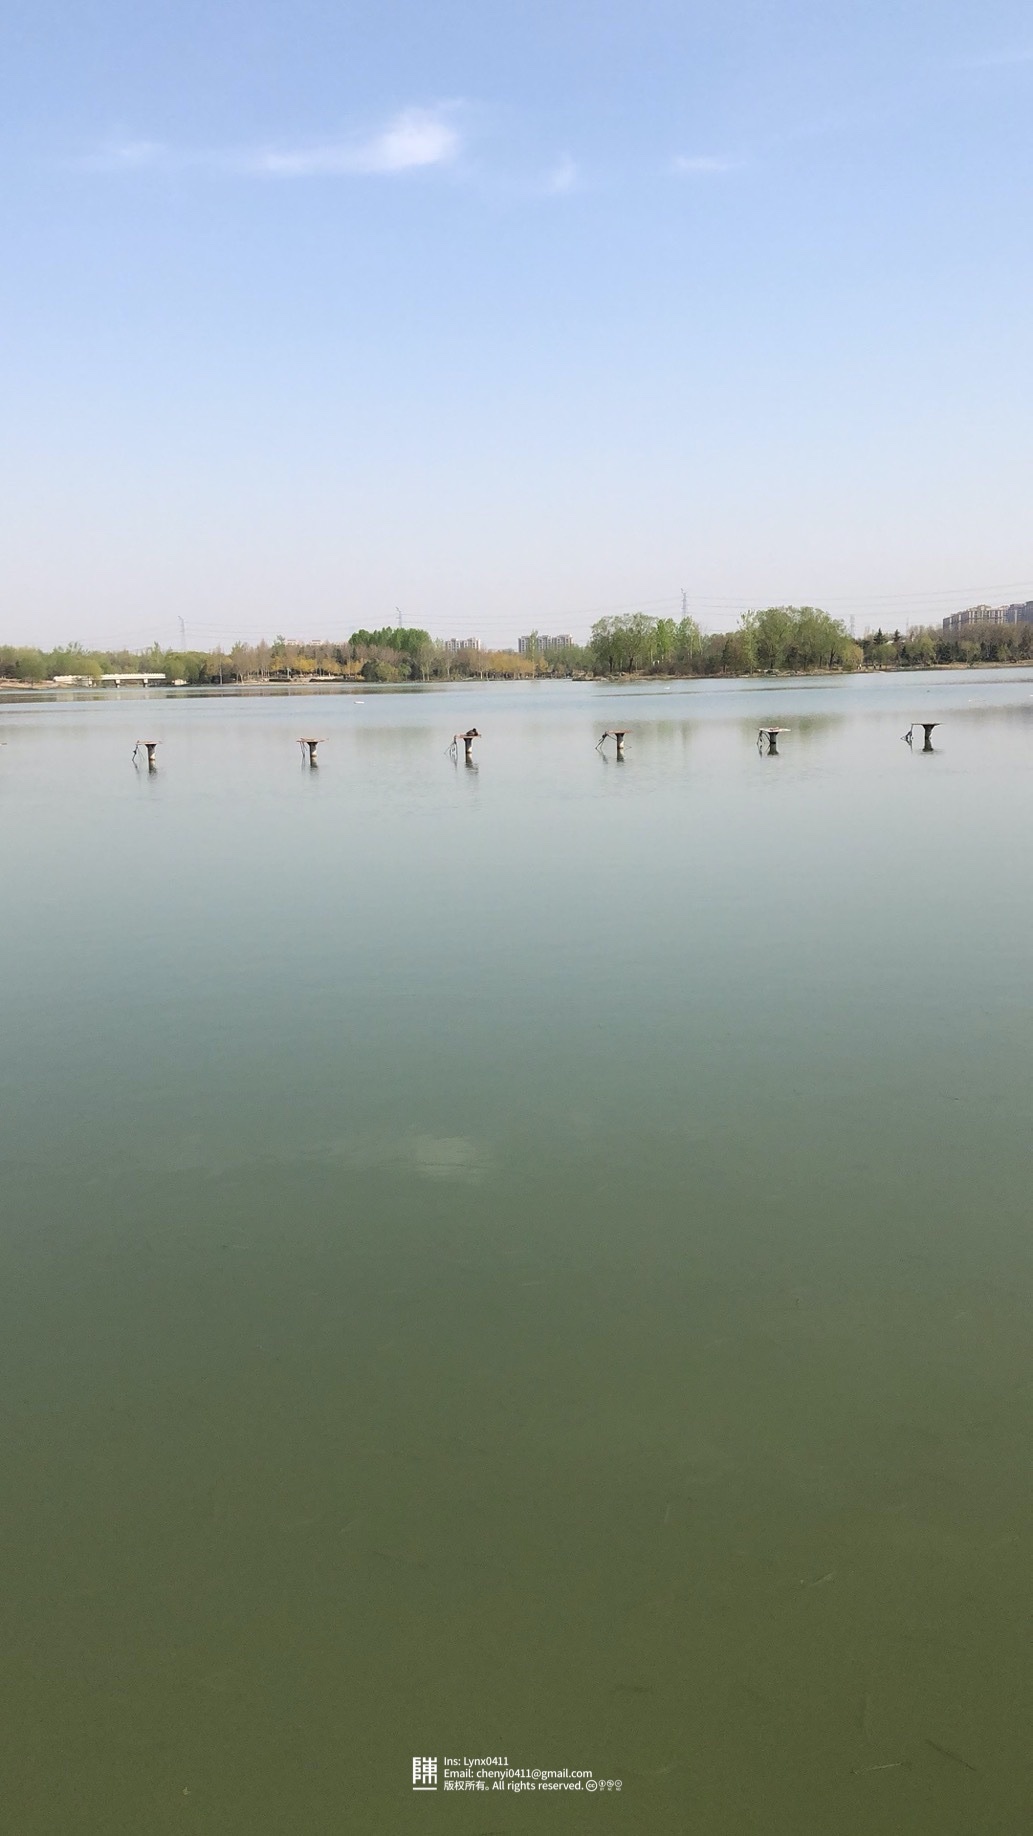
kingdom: Animalia
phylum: Chordata
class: Aves
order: Anseriformes
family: Anatidae
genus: Anas
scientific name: Anas platyrhynchos
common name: Mallard
